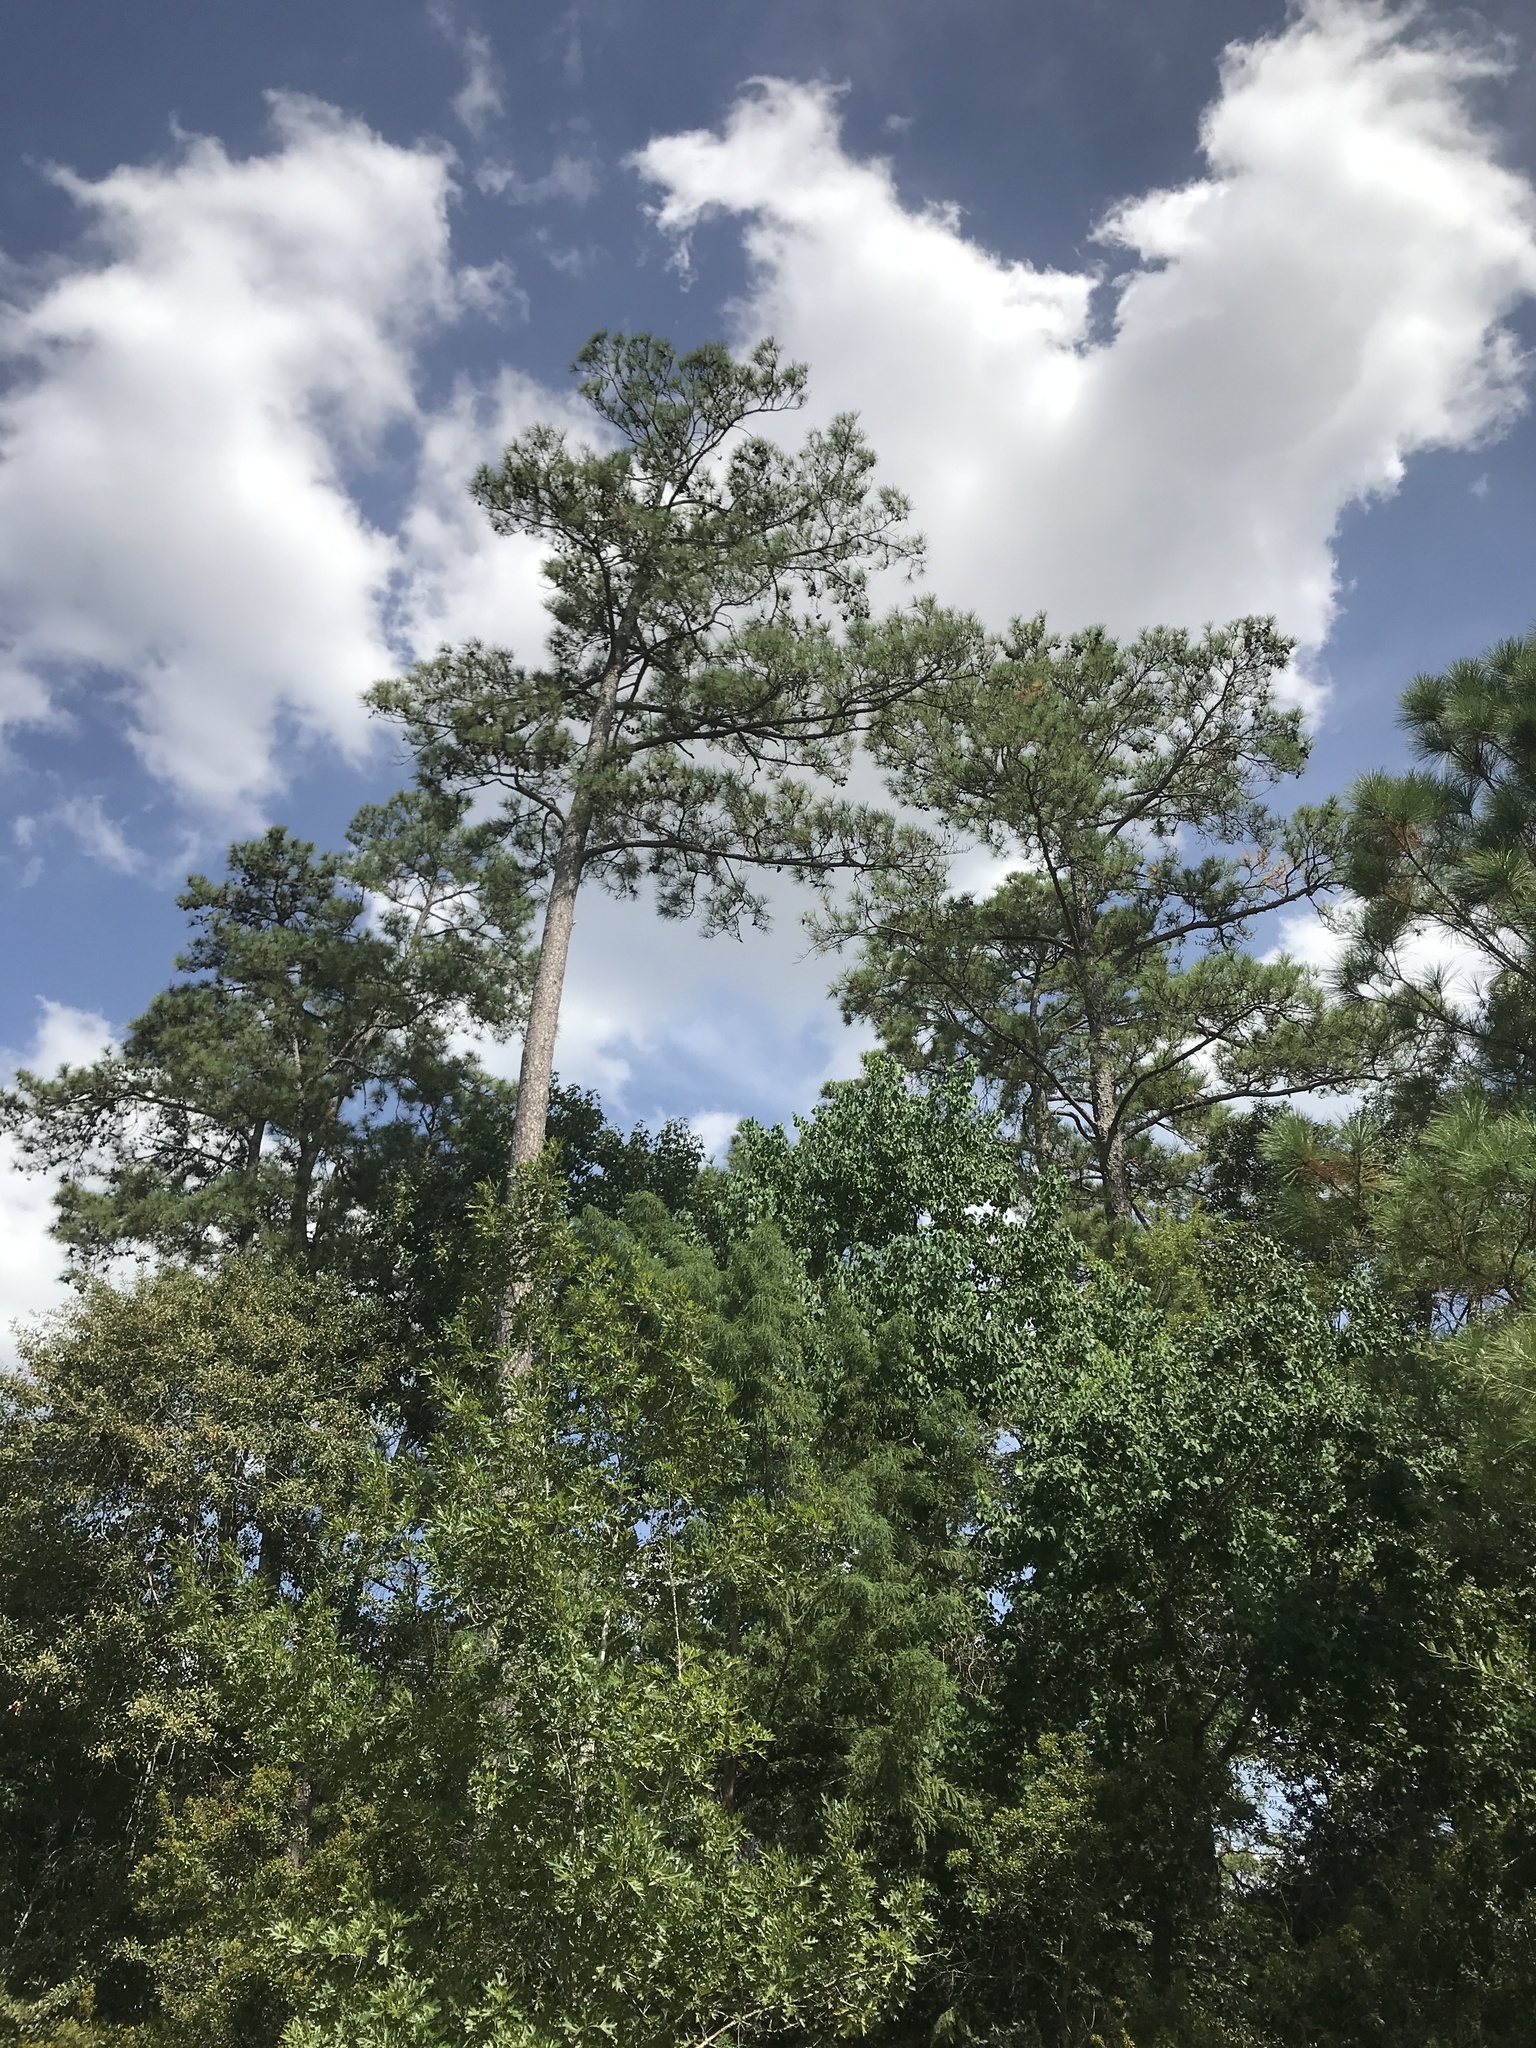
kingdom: Plantae
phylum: Tracheophyta
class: Pinopsida
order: Pinales
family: Pinaceae
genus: Pinus
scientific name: Pinus echinata
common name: Shortleaf pine
